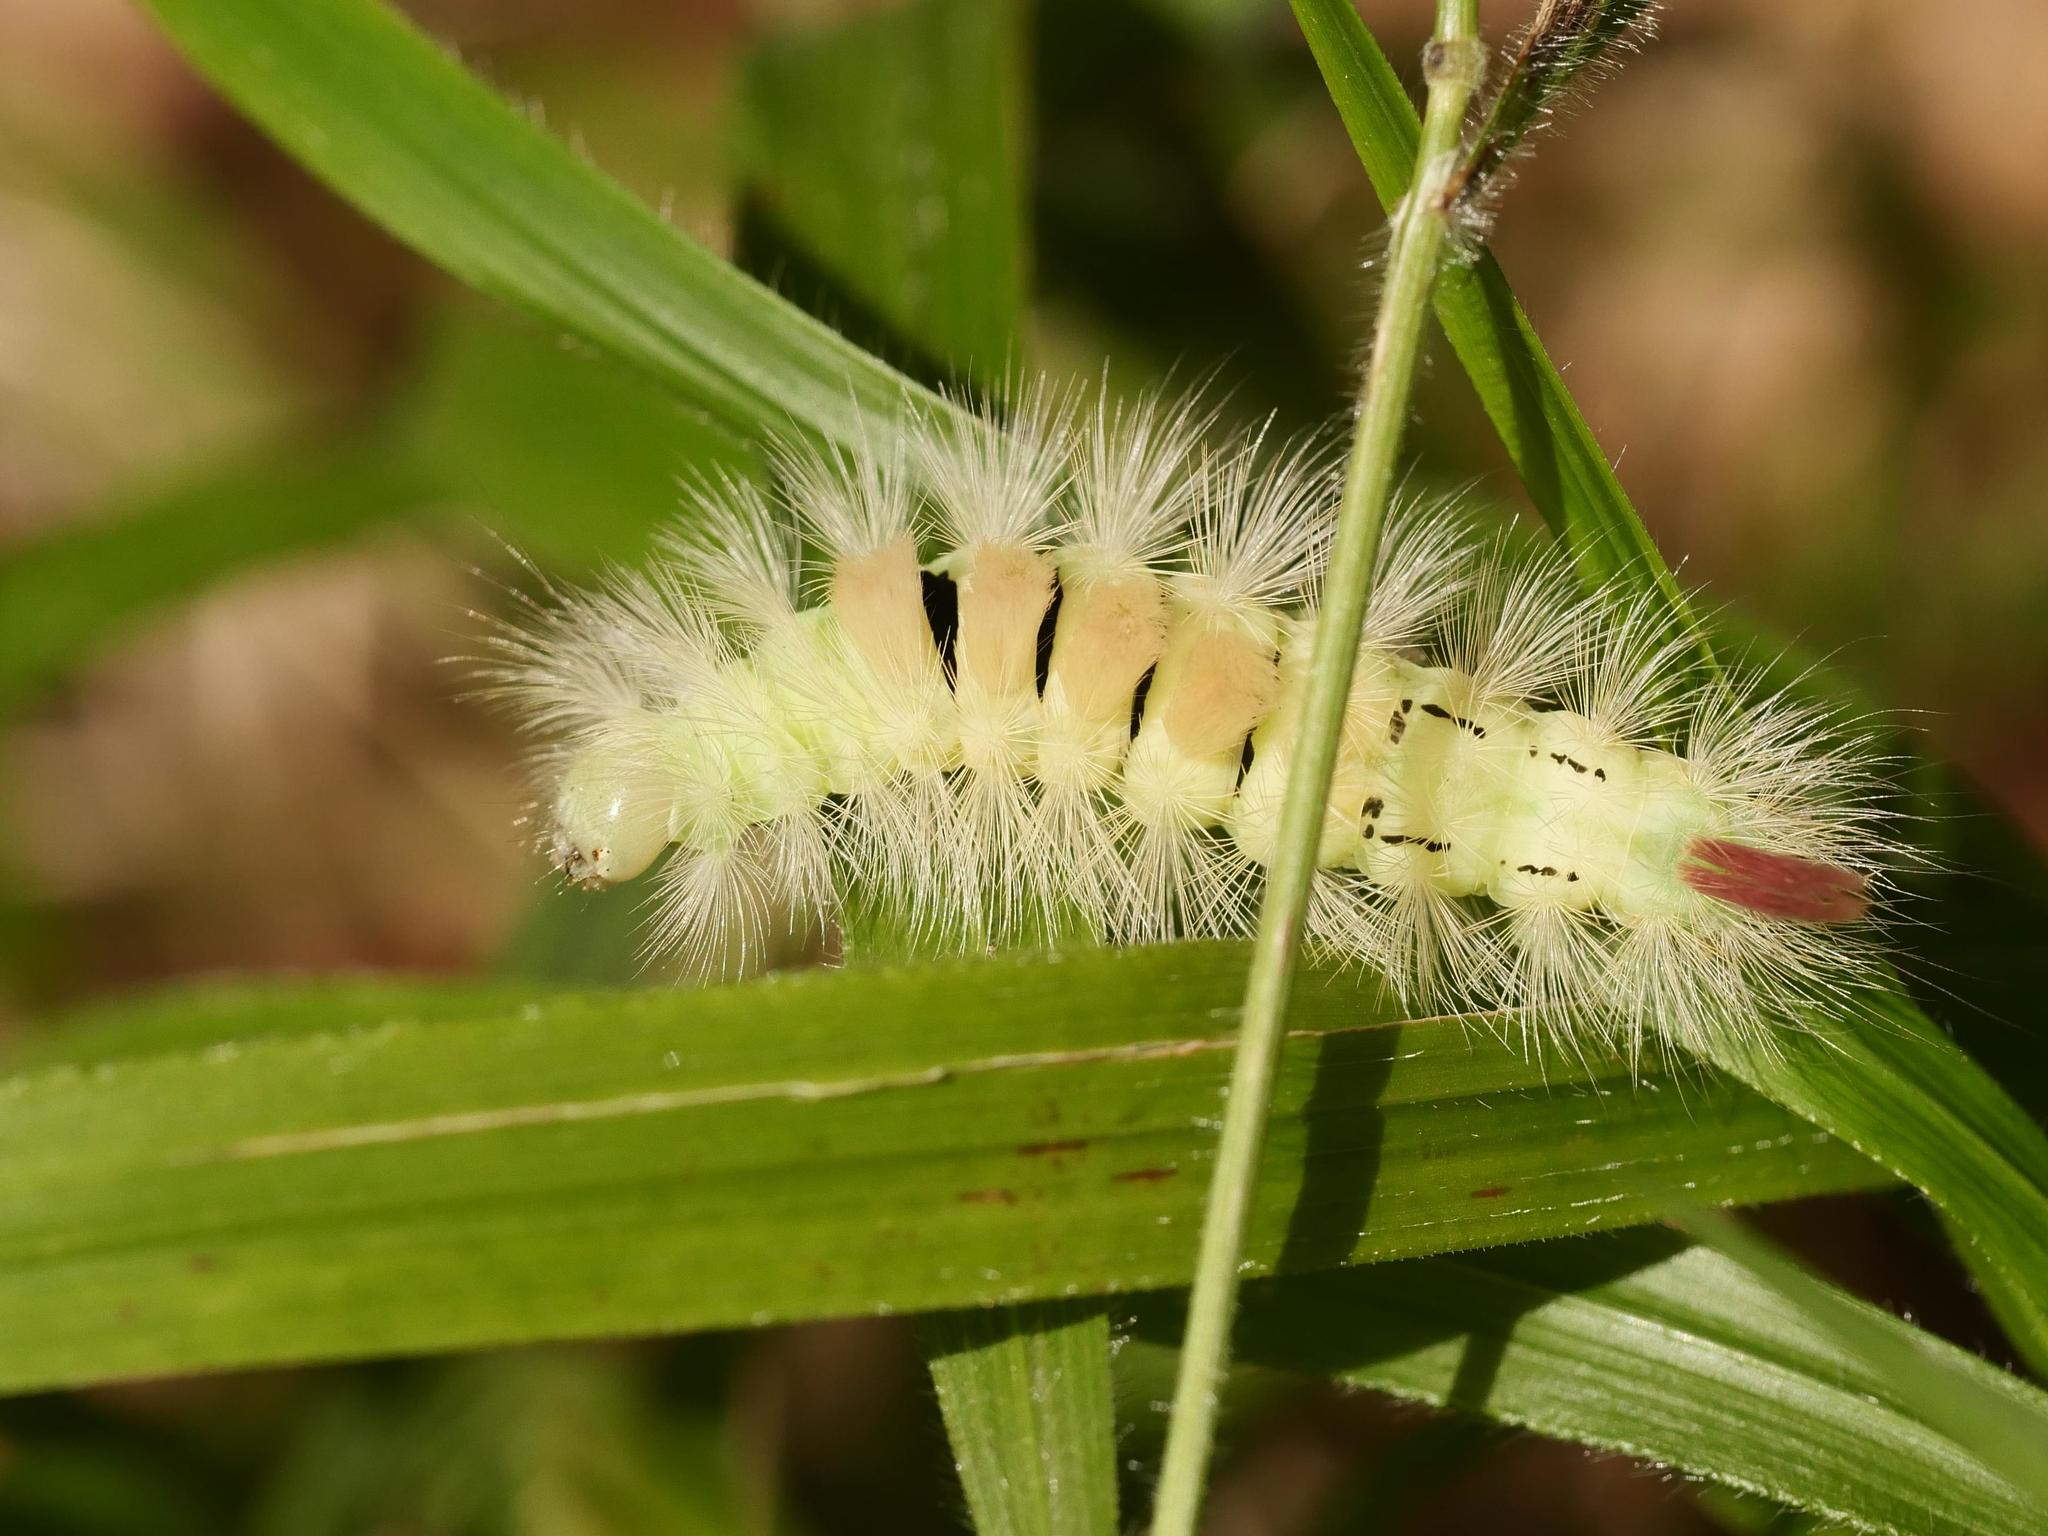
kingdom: Animalia
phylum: Arthropoda
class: Insecta
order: Lepidoptera
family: Erebidae
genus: Calliteara
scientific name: Calliteara pudibunda
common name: Pale tussock
